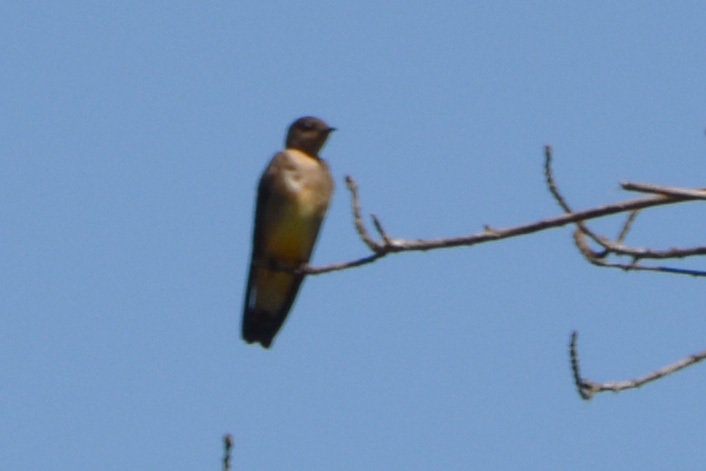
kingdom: Animalia
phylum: Chordata
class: Aves
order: Passeriformes
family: Hirundinidae
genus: Stelgidopteryx
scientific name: Stelgidopteryx ruficollis
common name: Southern rough-winged swallow
